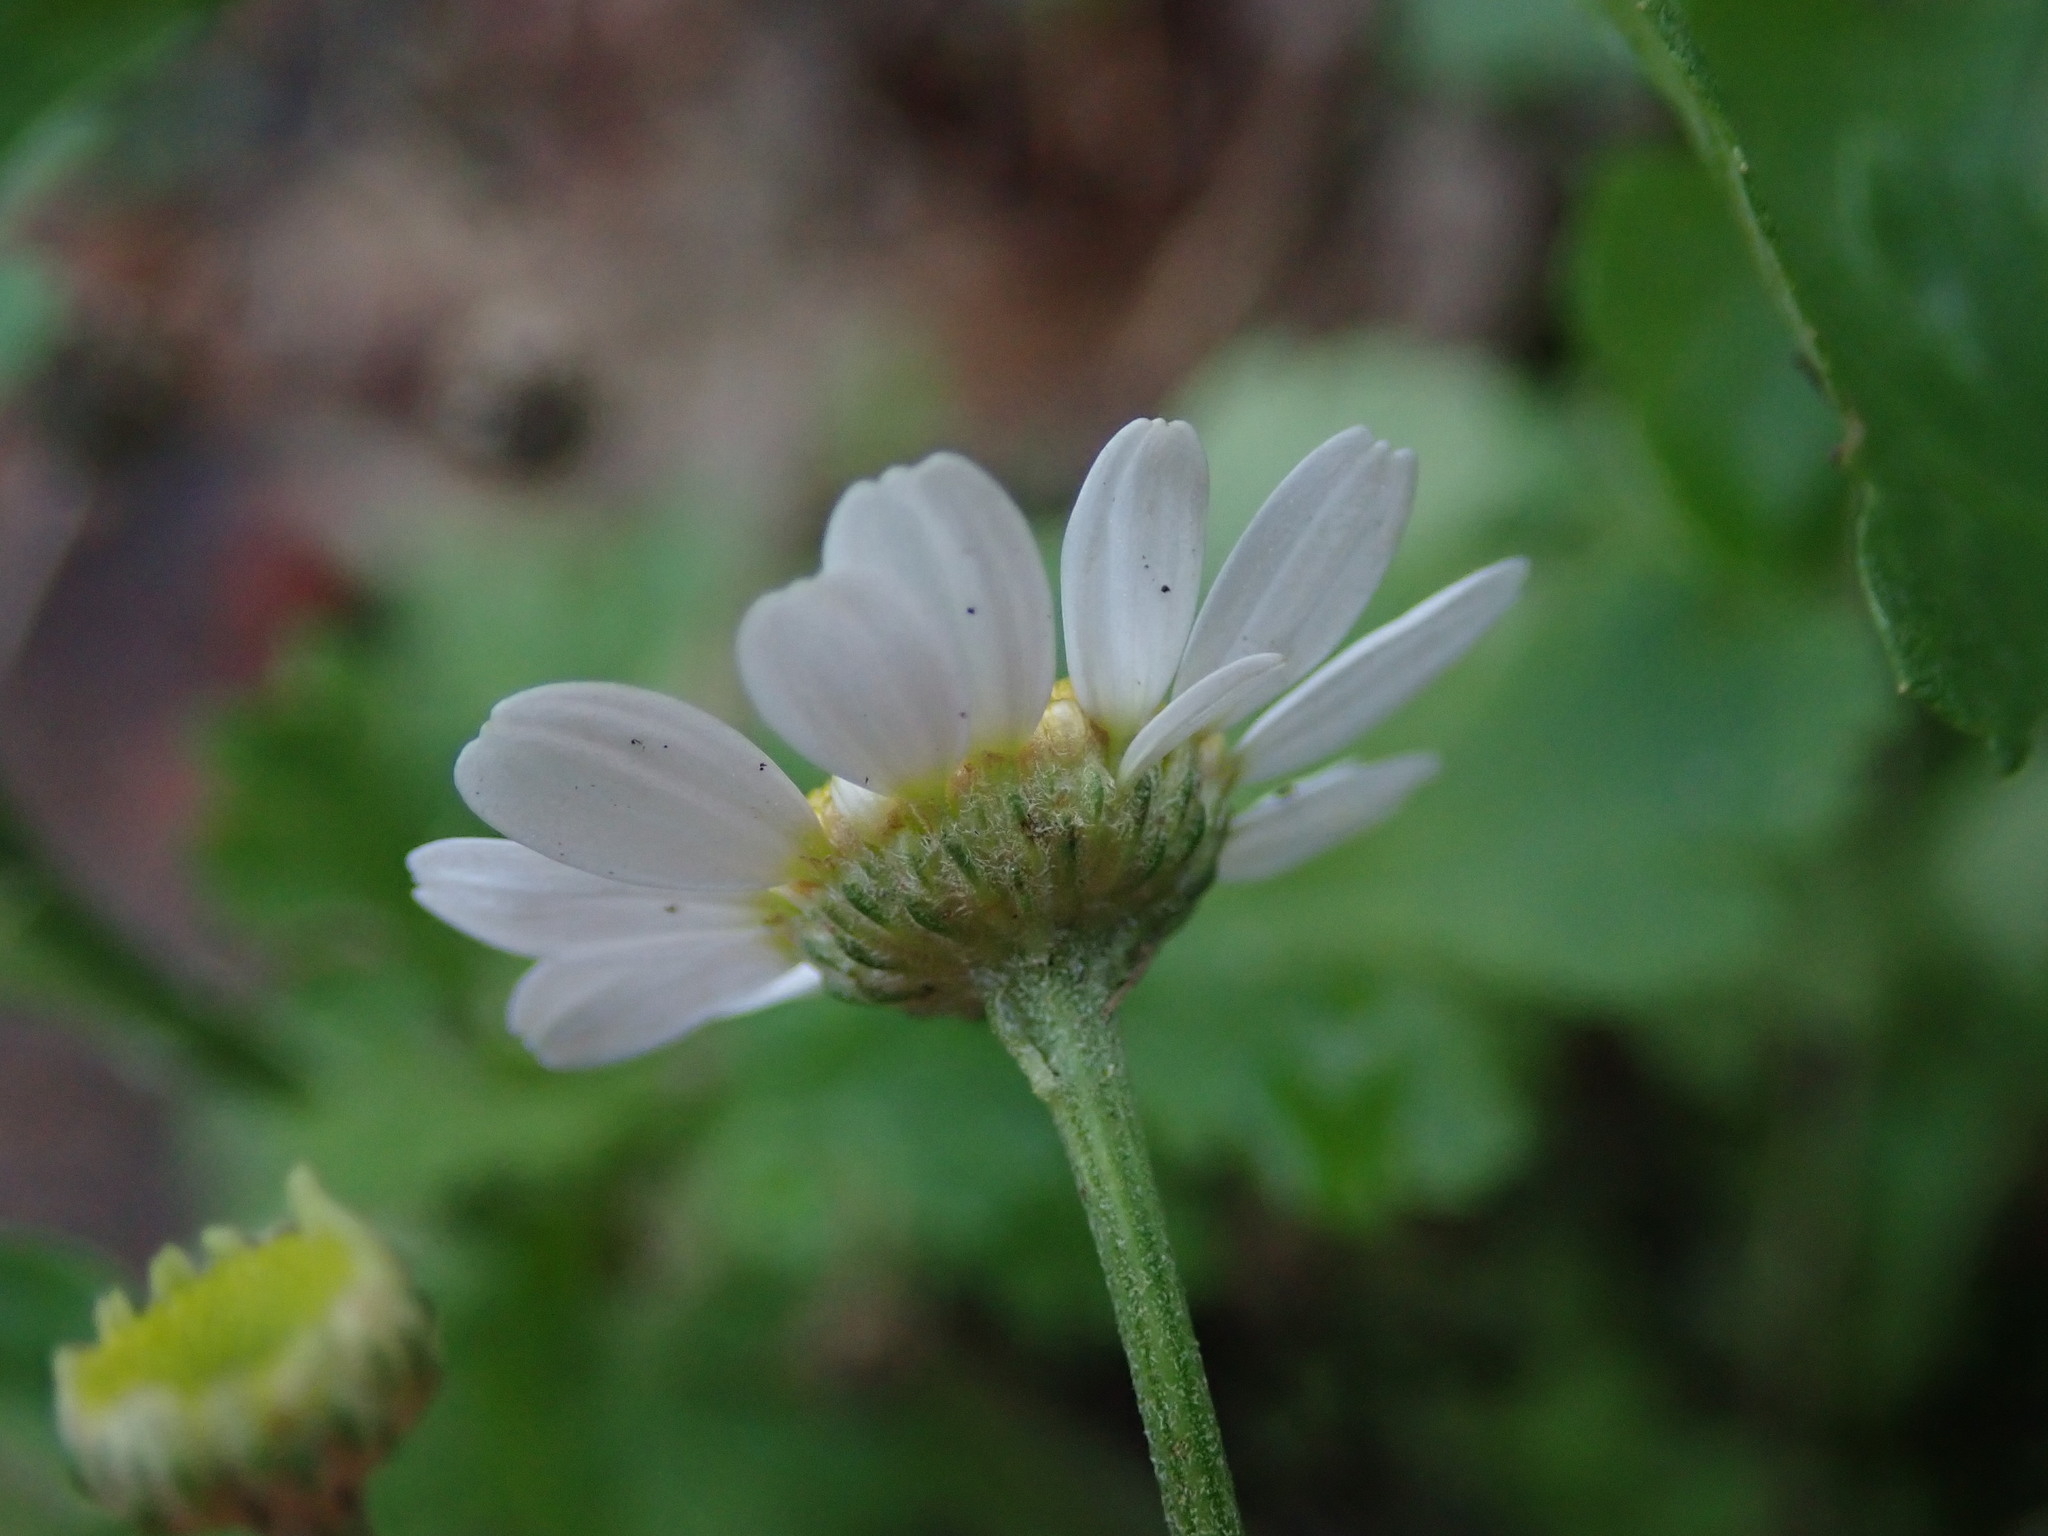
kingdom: Plantae
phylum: Tracheophyta
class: Magnoliopsida
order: Asterales
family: Asteraceae
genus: Tanacetum
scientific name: Tanacetum parthenium
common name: Feverfew
